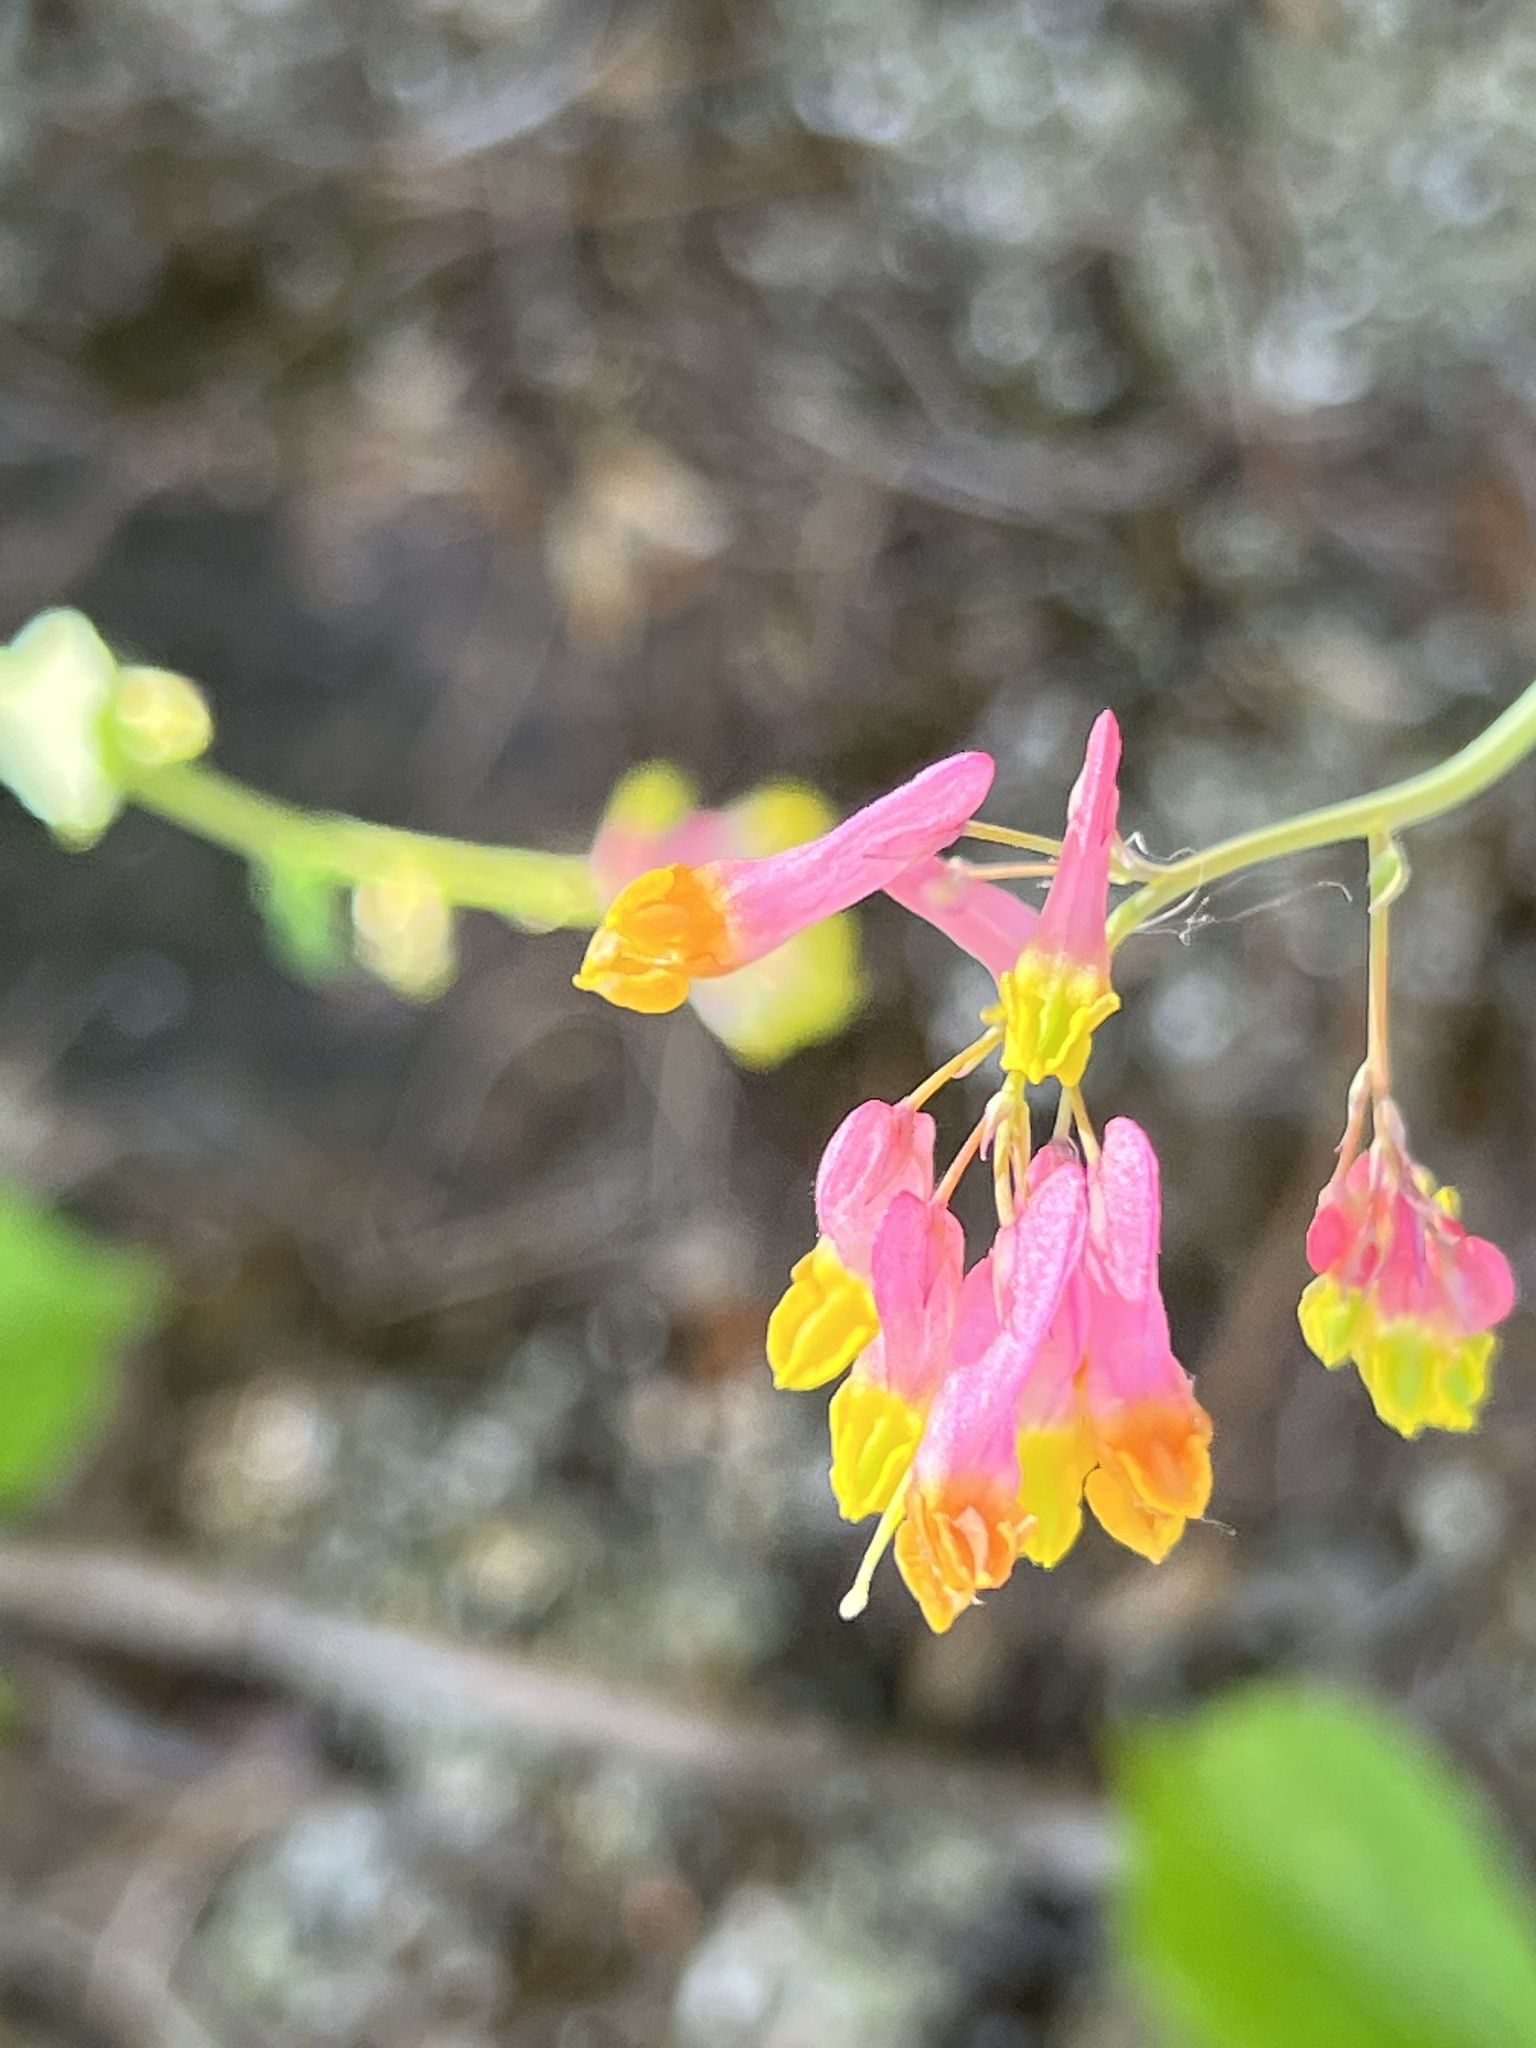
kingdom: Plantae
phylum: Tracheophyta
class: Magnoliopsida
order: Ranunculales
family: Papaveraceae
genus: Capnoides
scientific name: Capnoides sempervirens
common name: Rock harlequin
